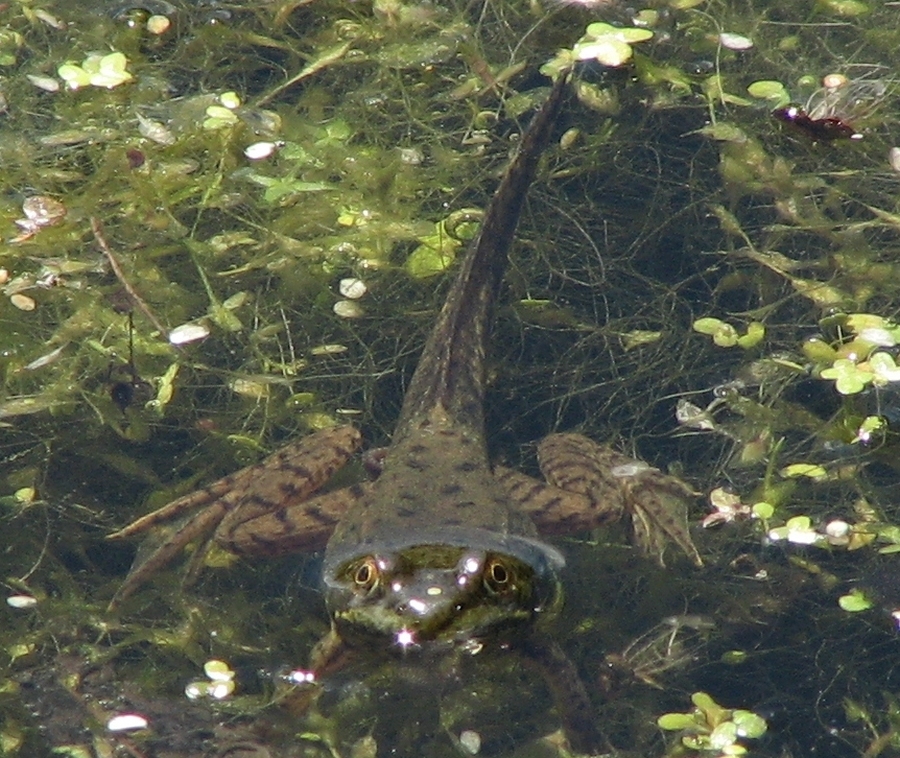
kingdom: Animalia
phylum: Chordata
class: Amphibia
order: Anura
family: Ranidae
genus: Lithobates
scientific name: Lithobates clamitans
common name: Green frog
